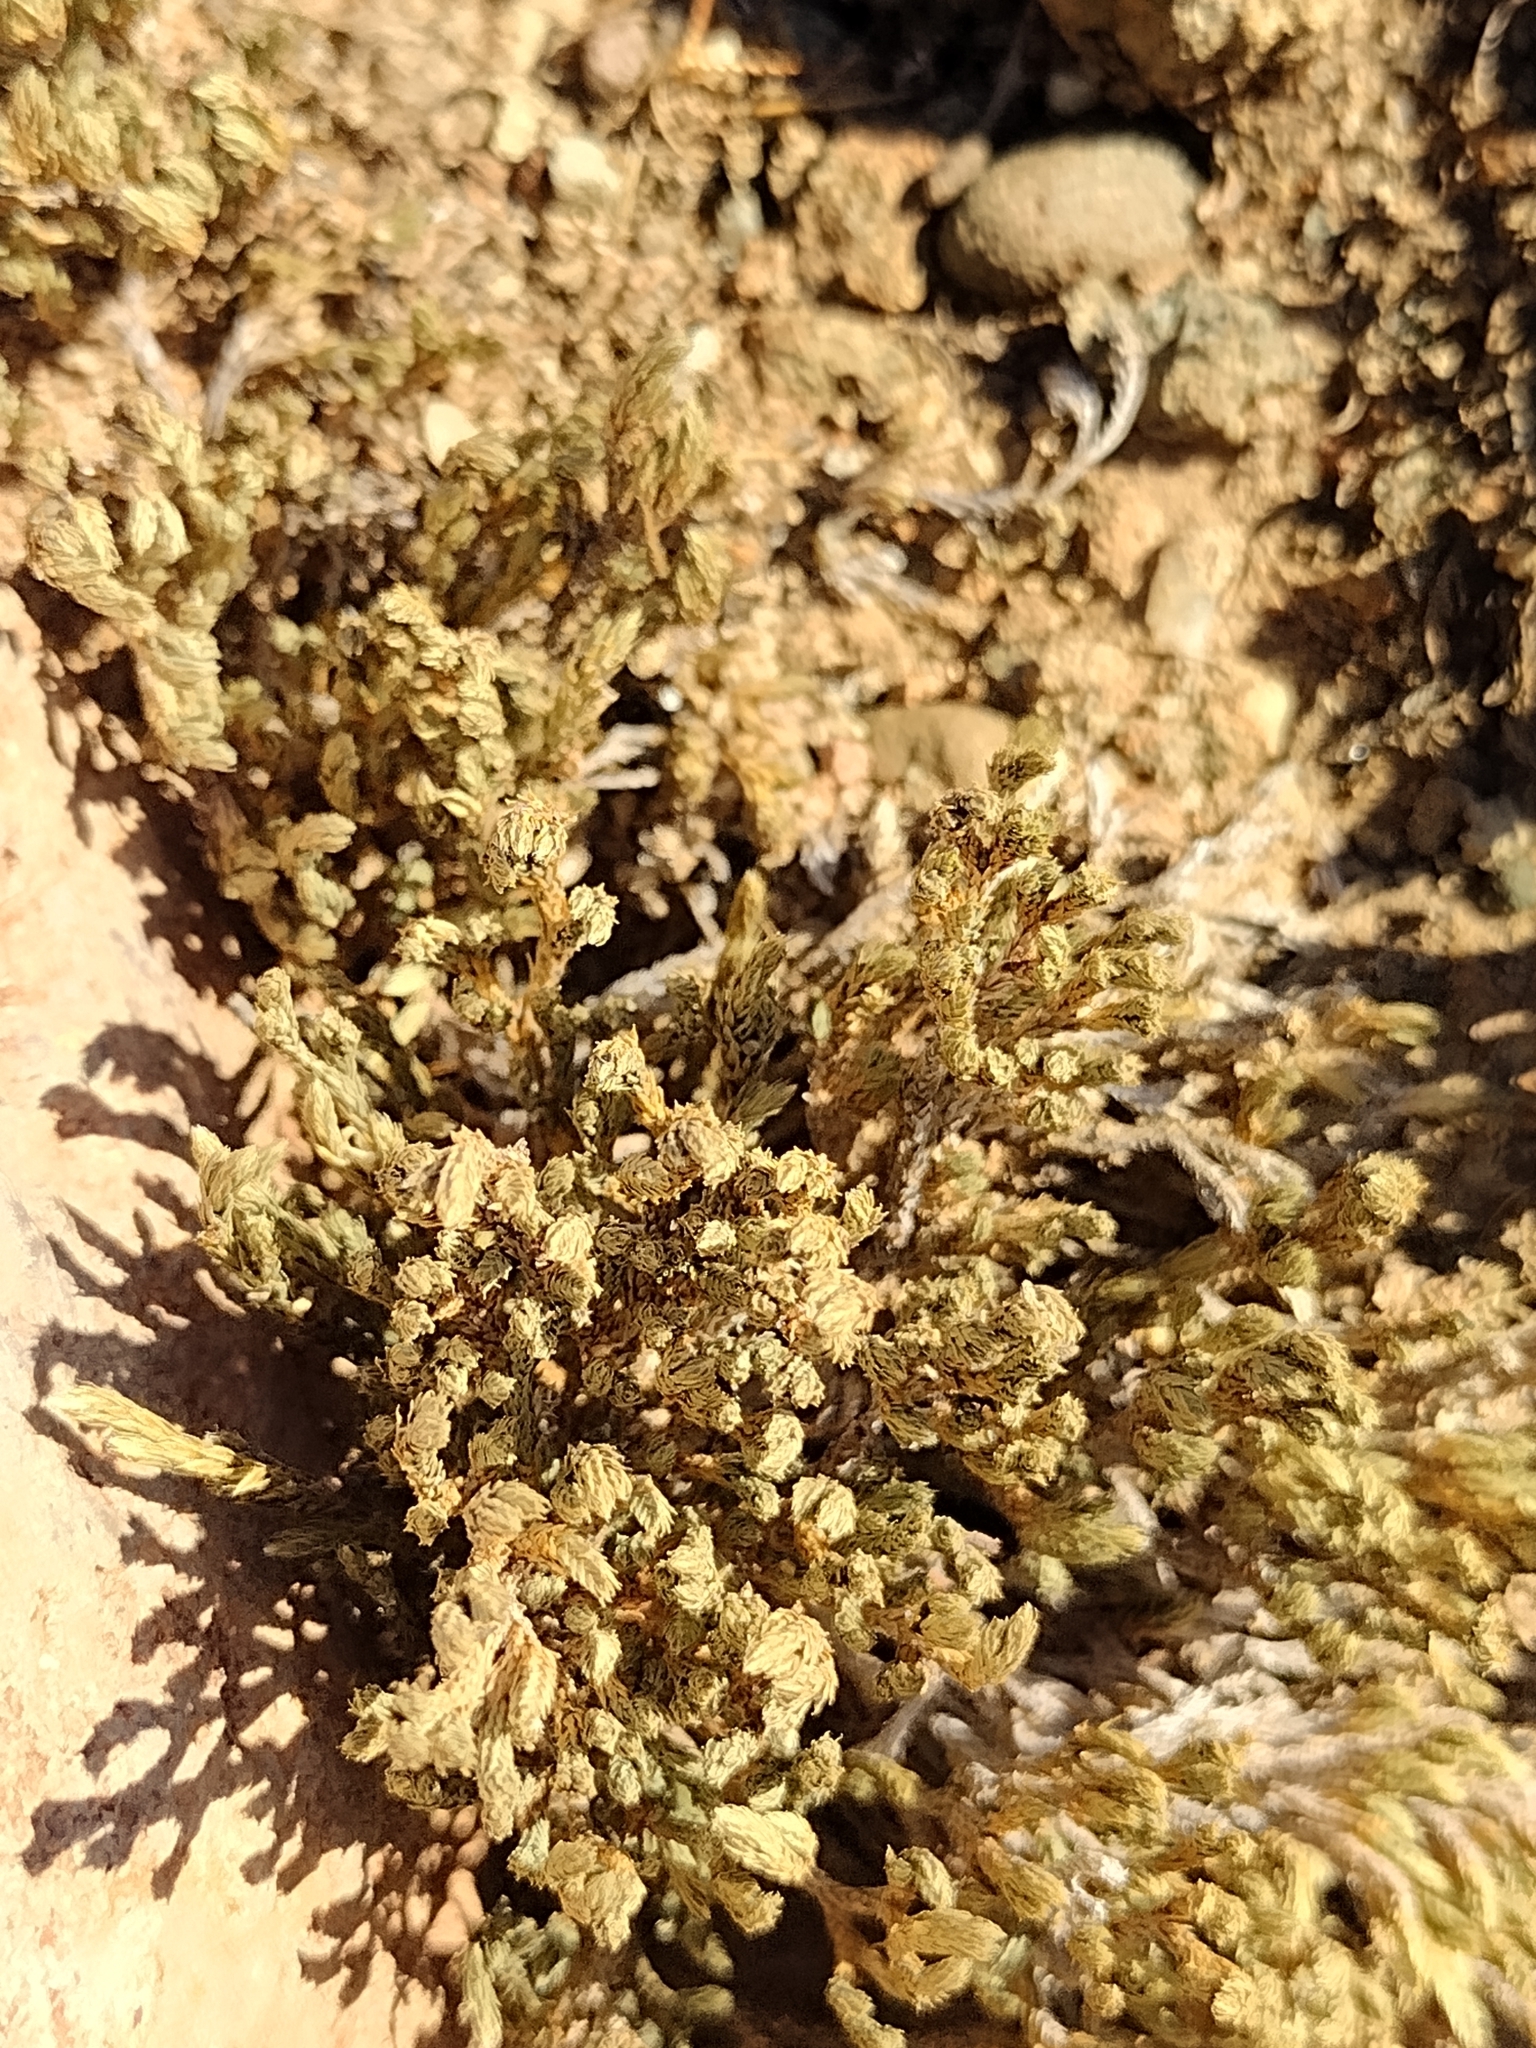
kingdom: Plantae
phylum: Tracheophyta
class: Lycopodiopsida
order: Selaginellales
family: Selaginellaceae
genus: Selaginella
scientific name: Selaginella bigelovii
